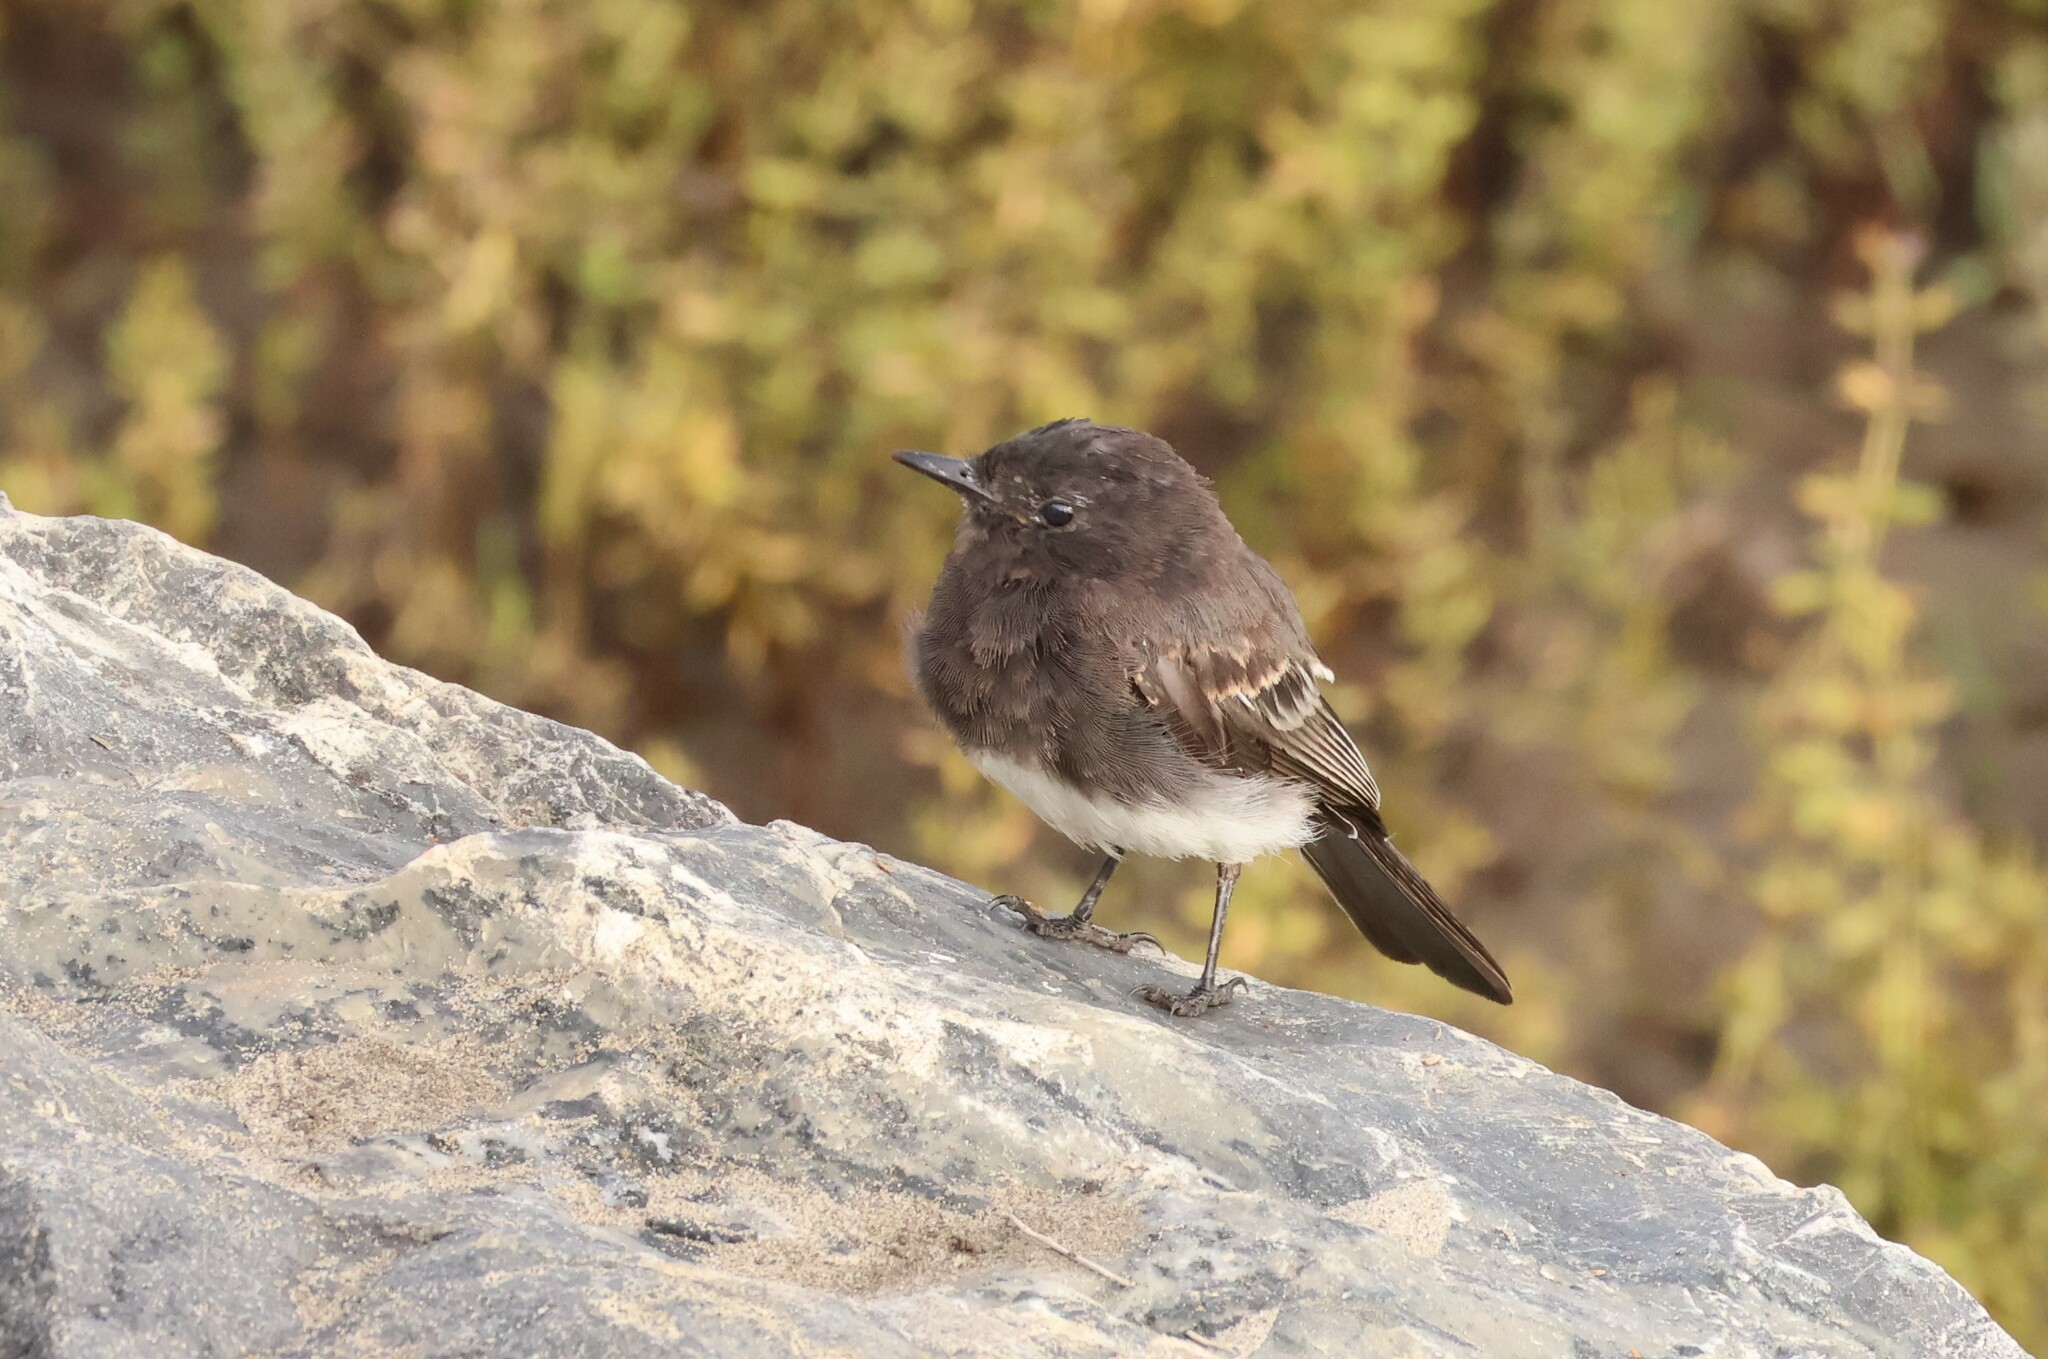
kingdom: Animalia
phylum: Chordata
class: Aves
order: Passeriformes
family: Tyrannidae
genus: Sayornis
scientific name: Sayornis nigricans
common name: Black phoebe
